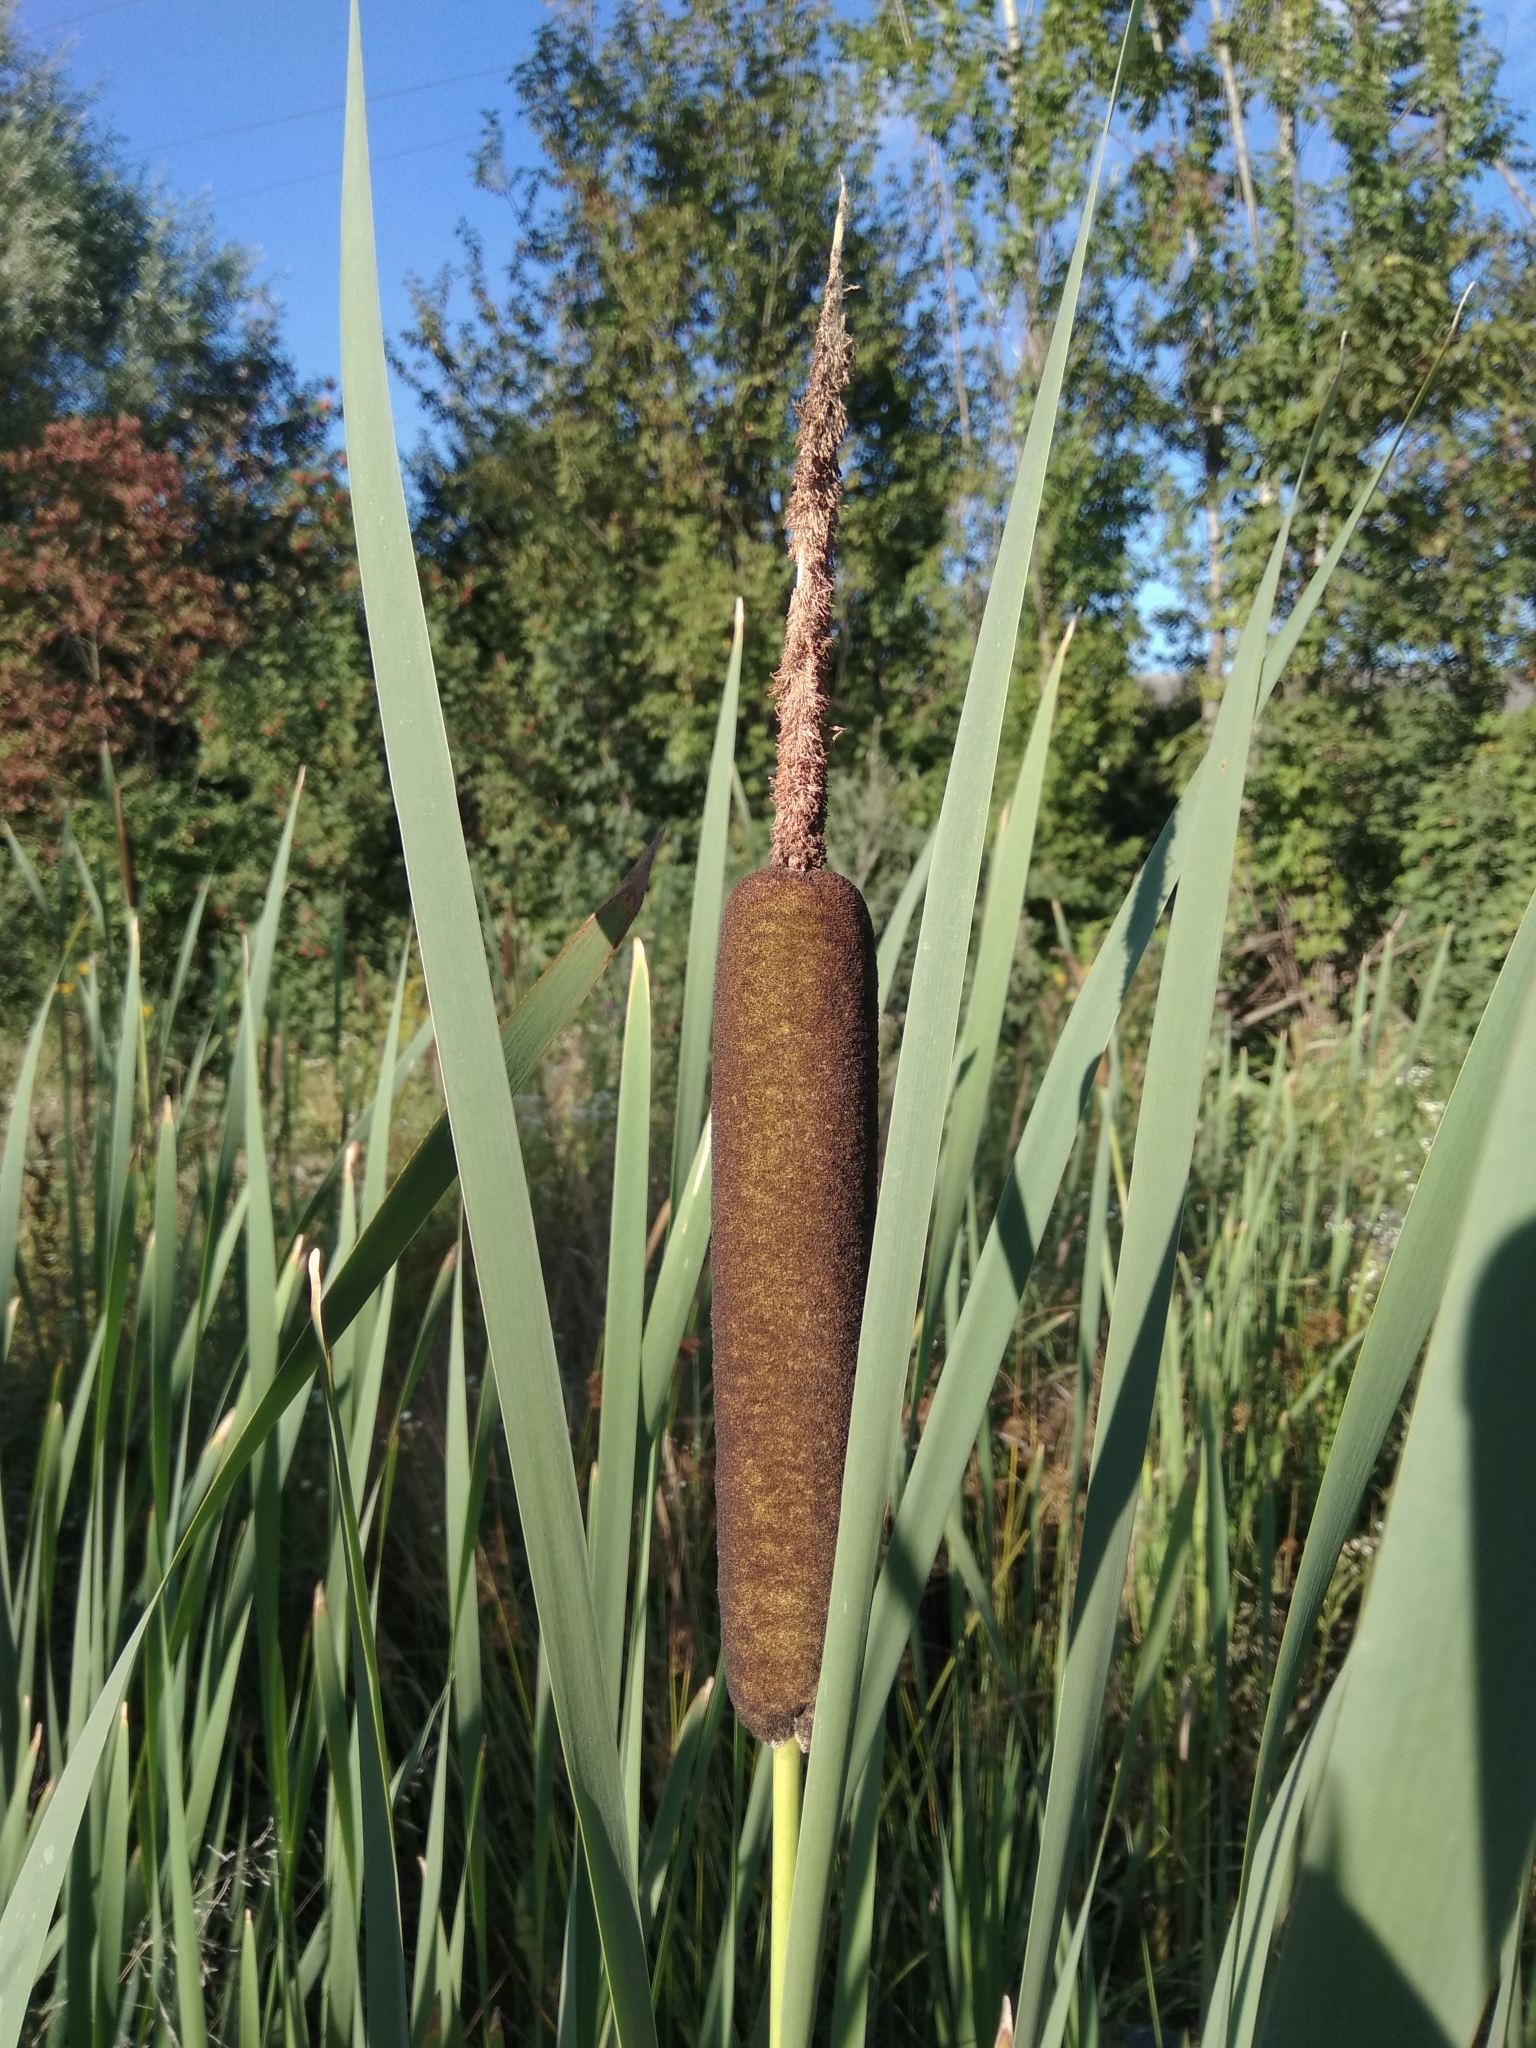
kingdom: Plantae
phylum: Tracheophyta
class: Liliopsida
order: Poales
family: Typhaceae
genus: Typha
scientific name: Typha latifolia
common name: Broadleaf cattail
